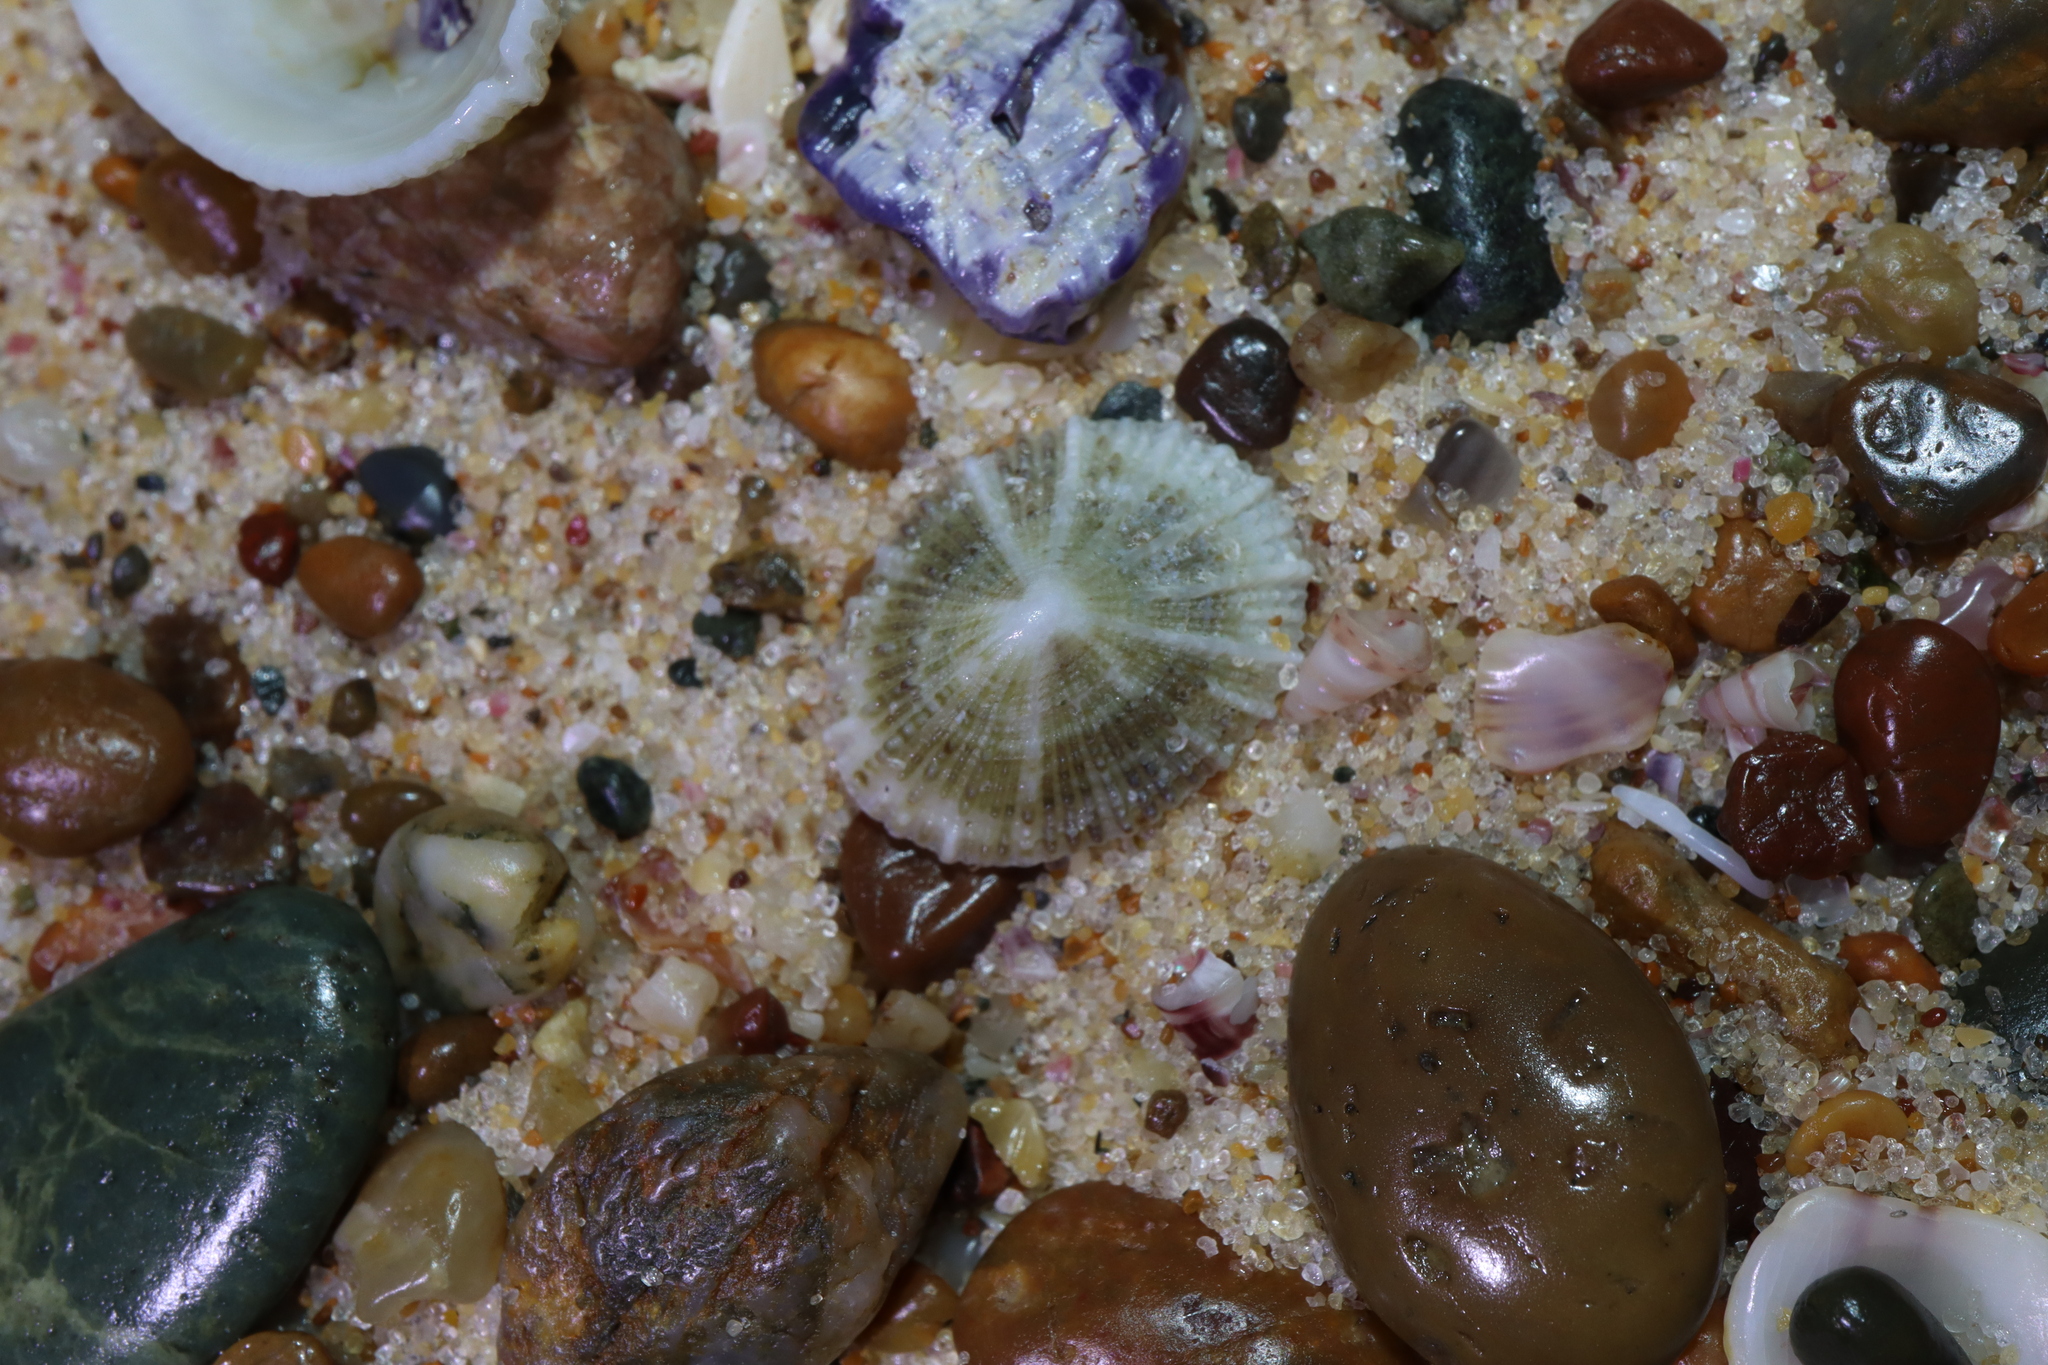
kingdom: Animalia
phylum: Mollusca
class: Gastropoda
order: Lepetellida
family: Fissurellidae
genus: Montfortula
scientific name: Montfortula rugosa
